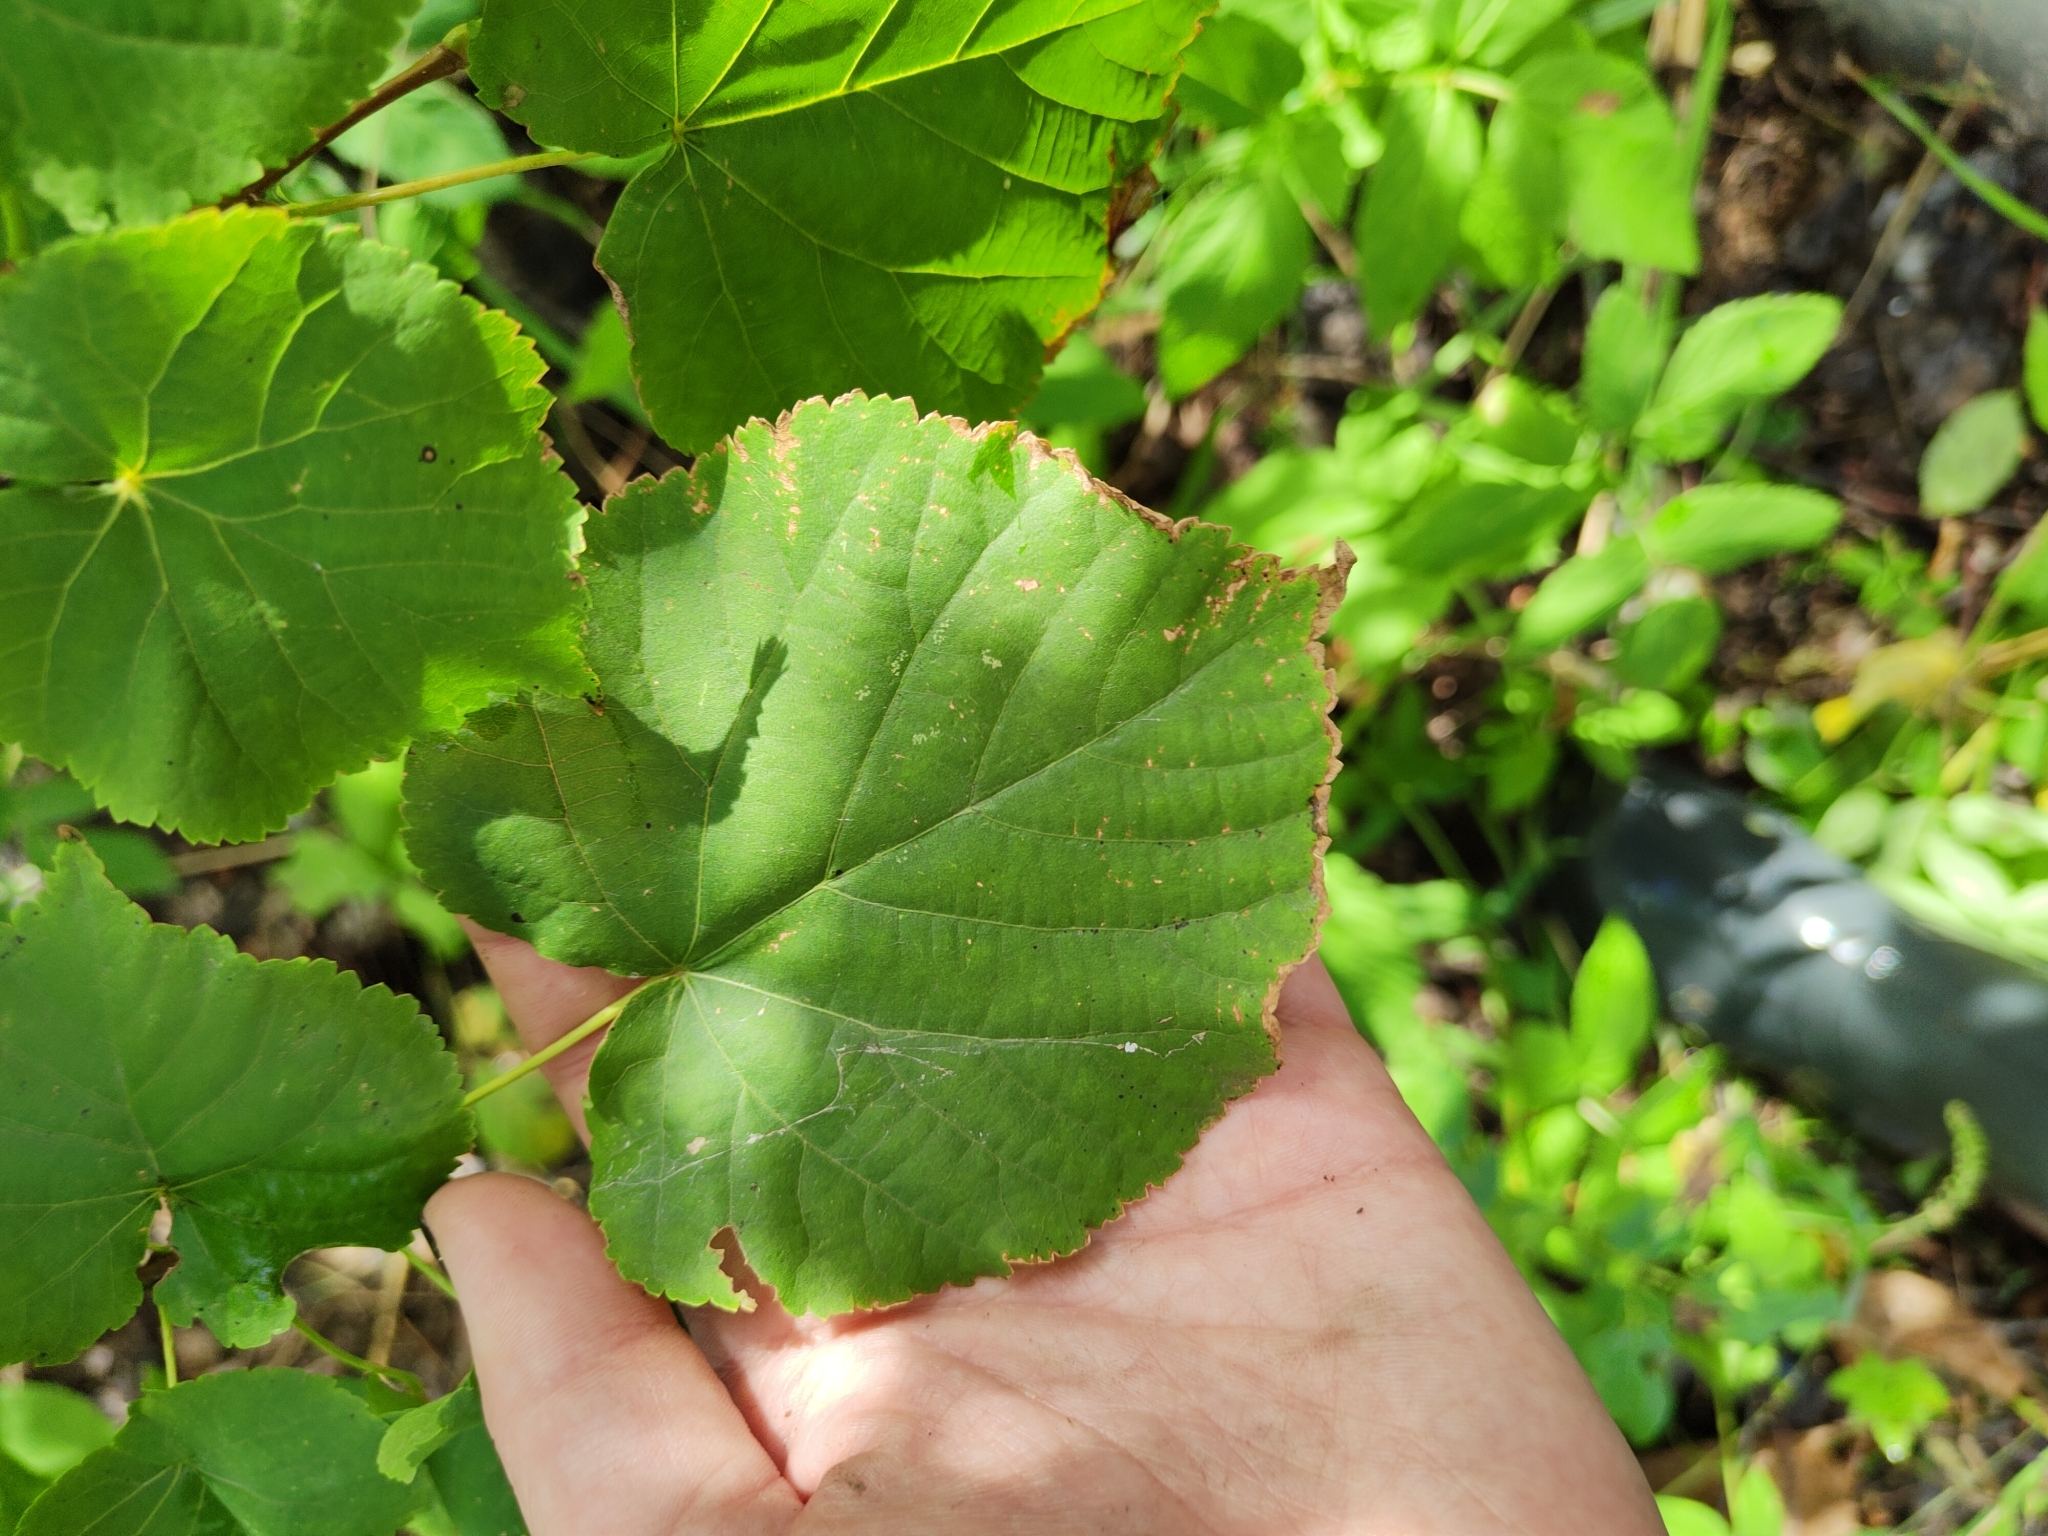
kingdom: Plantae
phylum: Tracheophyta
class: Magnoliopsida
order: Malvales
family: Malvaceae
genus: Tilia
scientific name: Tilia cordata
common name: Small-leaved lime
